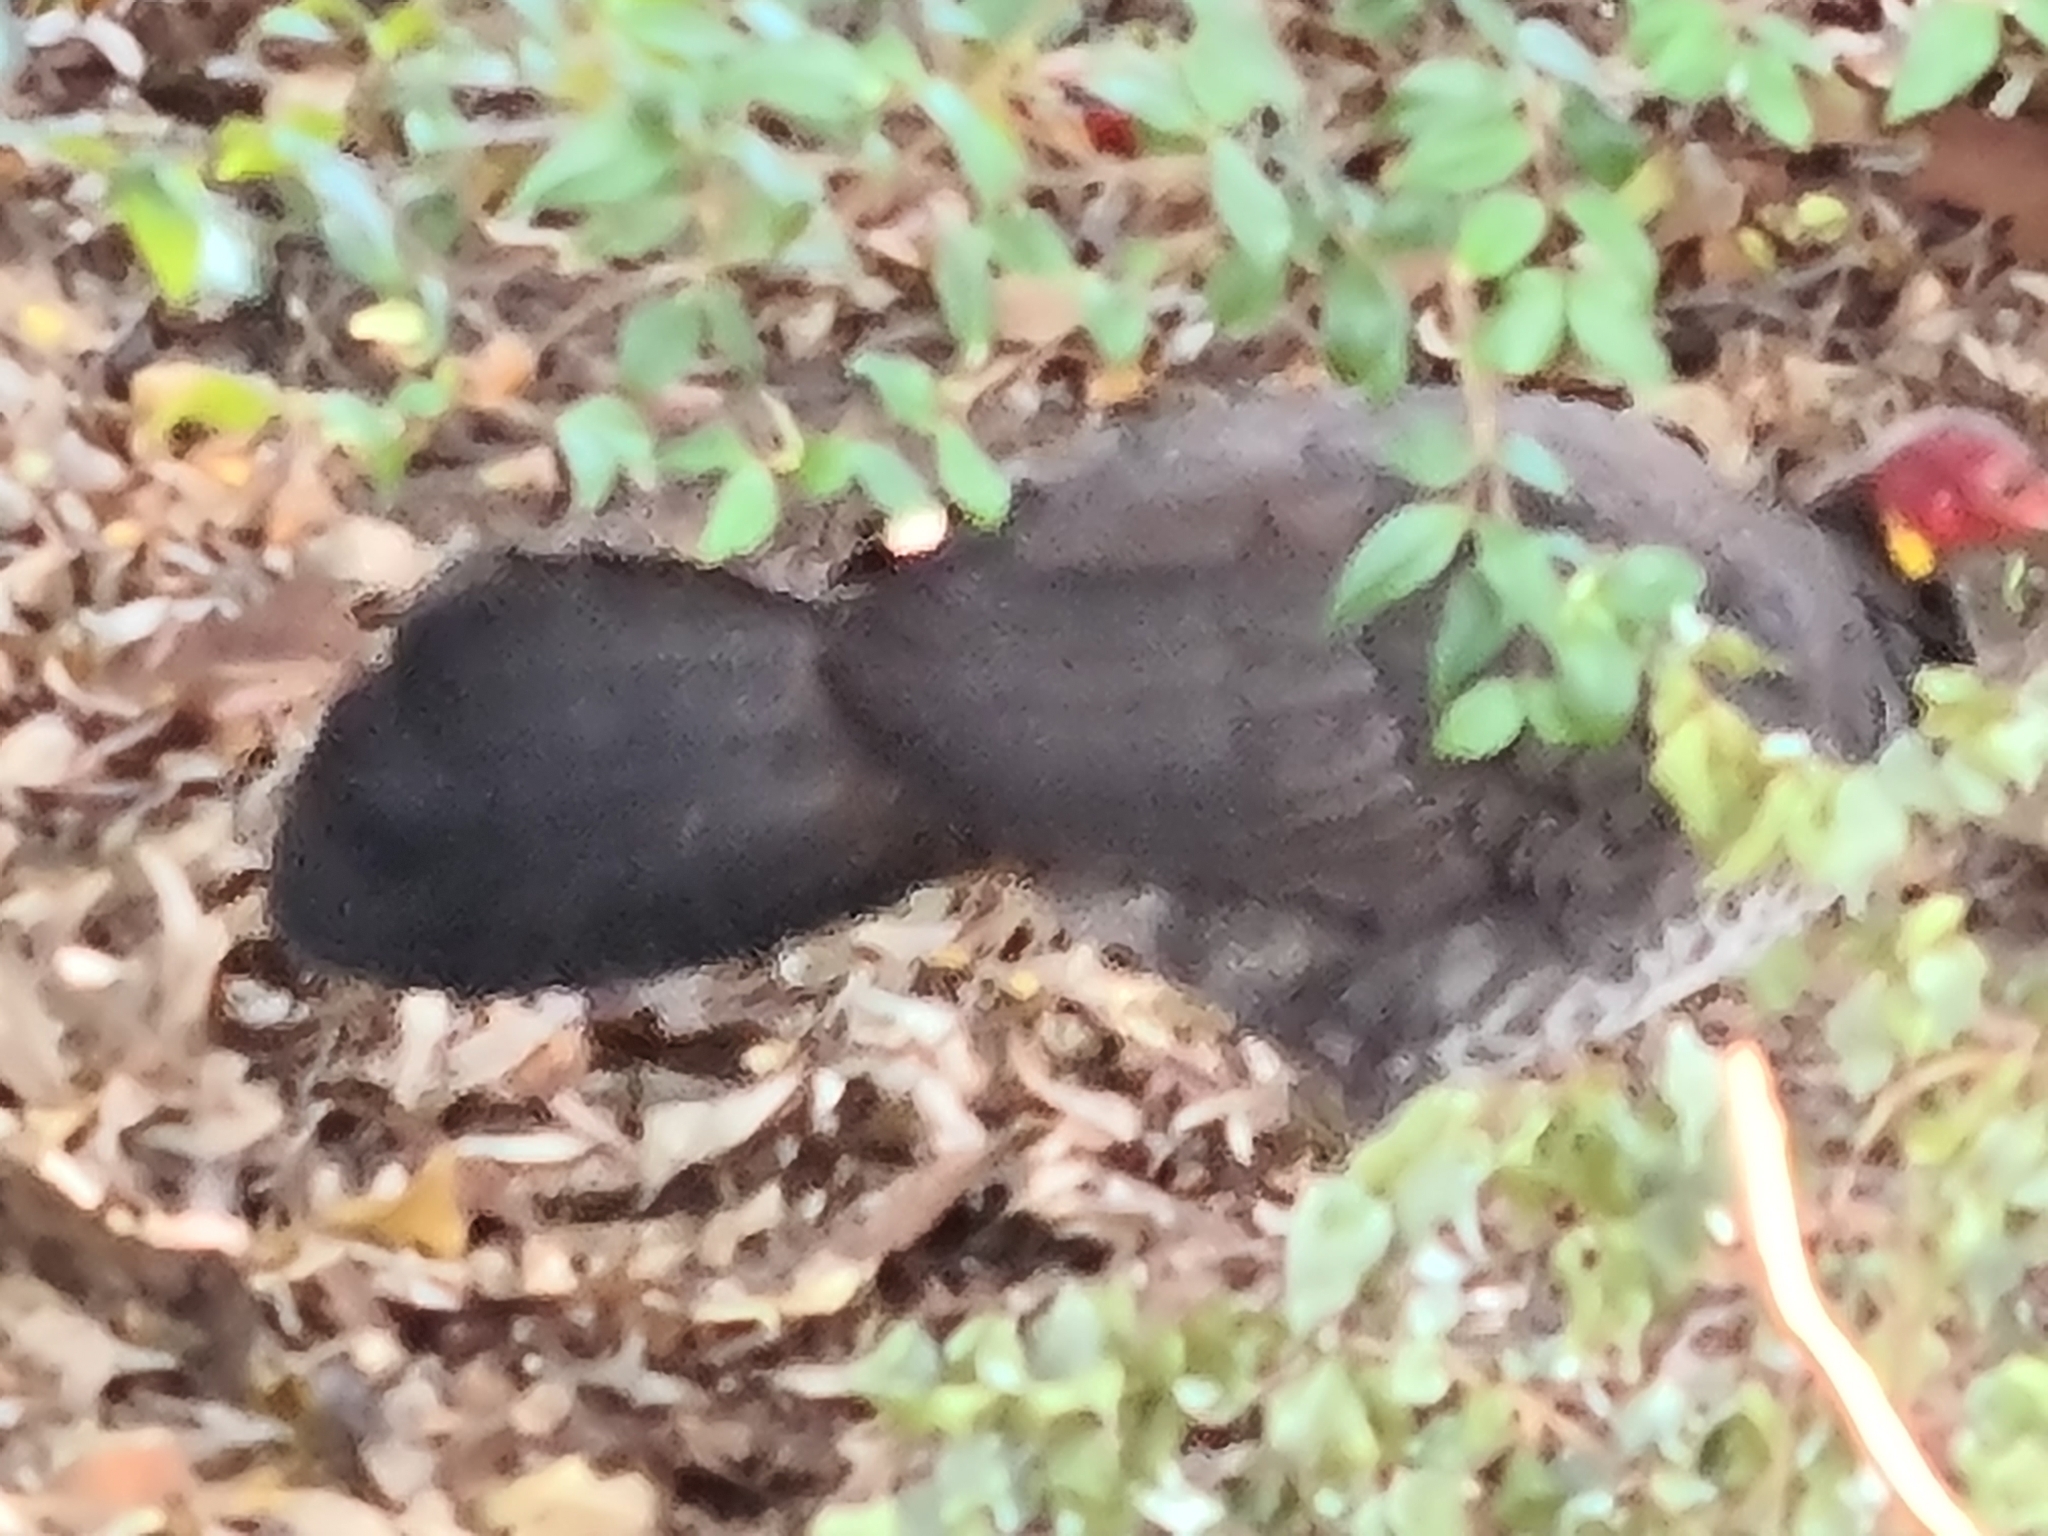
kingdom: Animalia
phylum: Chordata
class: Aves
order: Galliformes
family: Megapodiidae
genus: Alectura
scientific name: Alectura lathami
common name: Australian brushturkey
